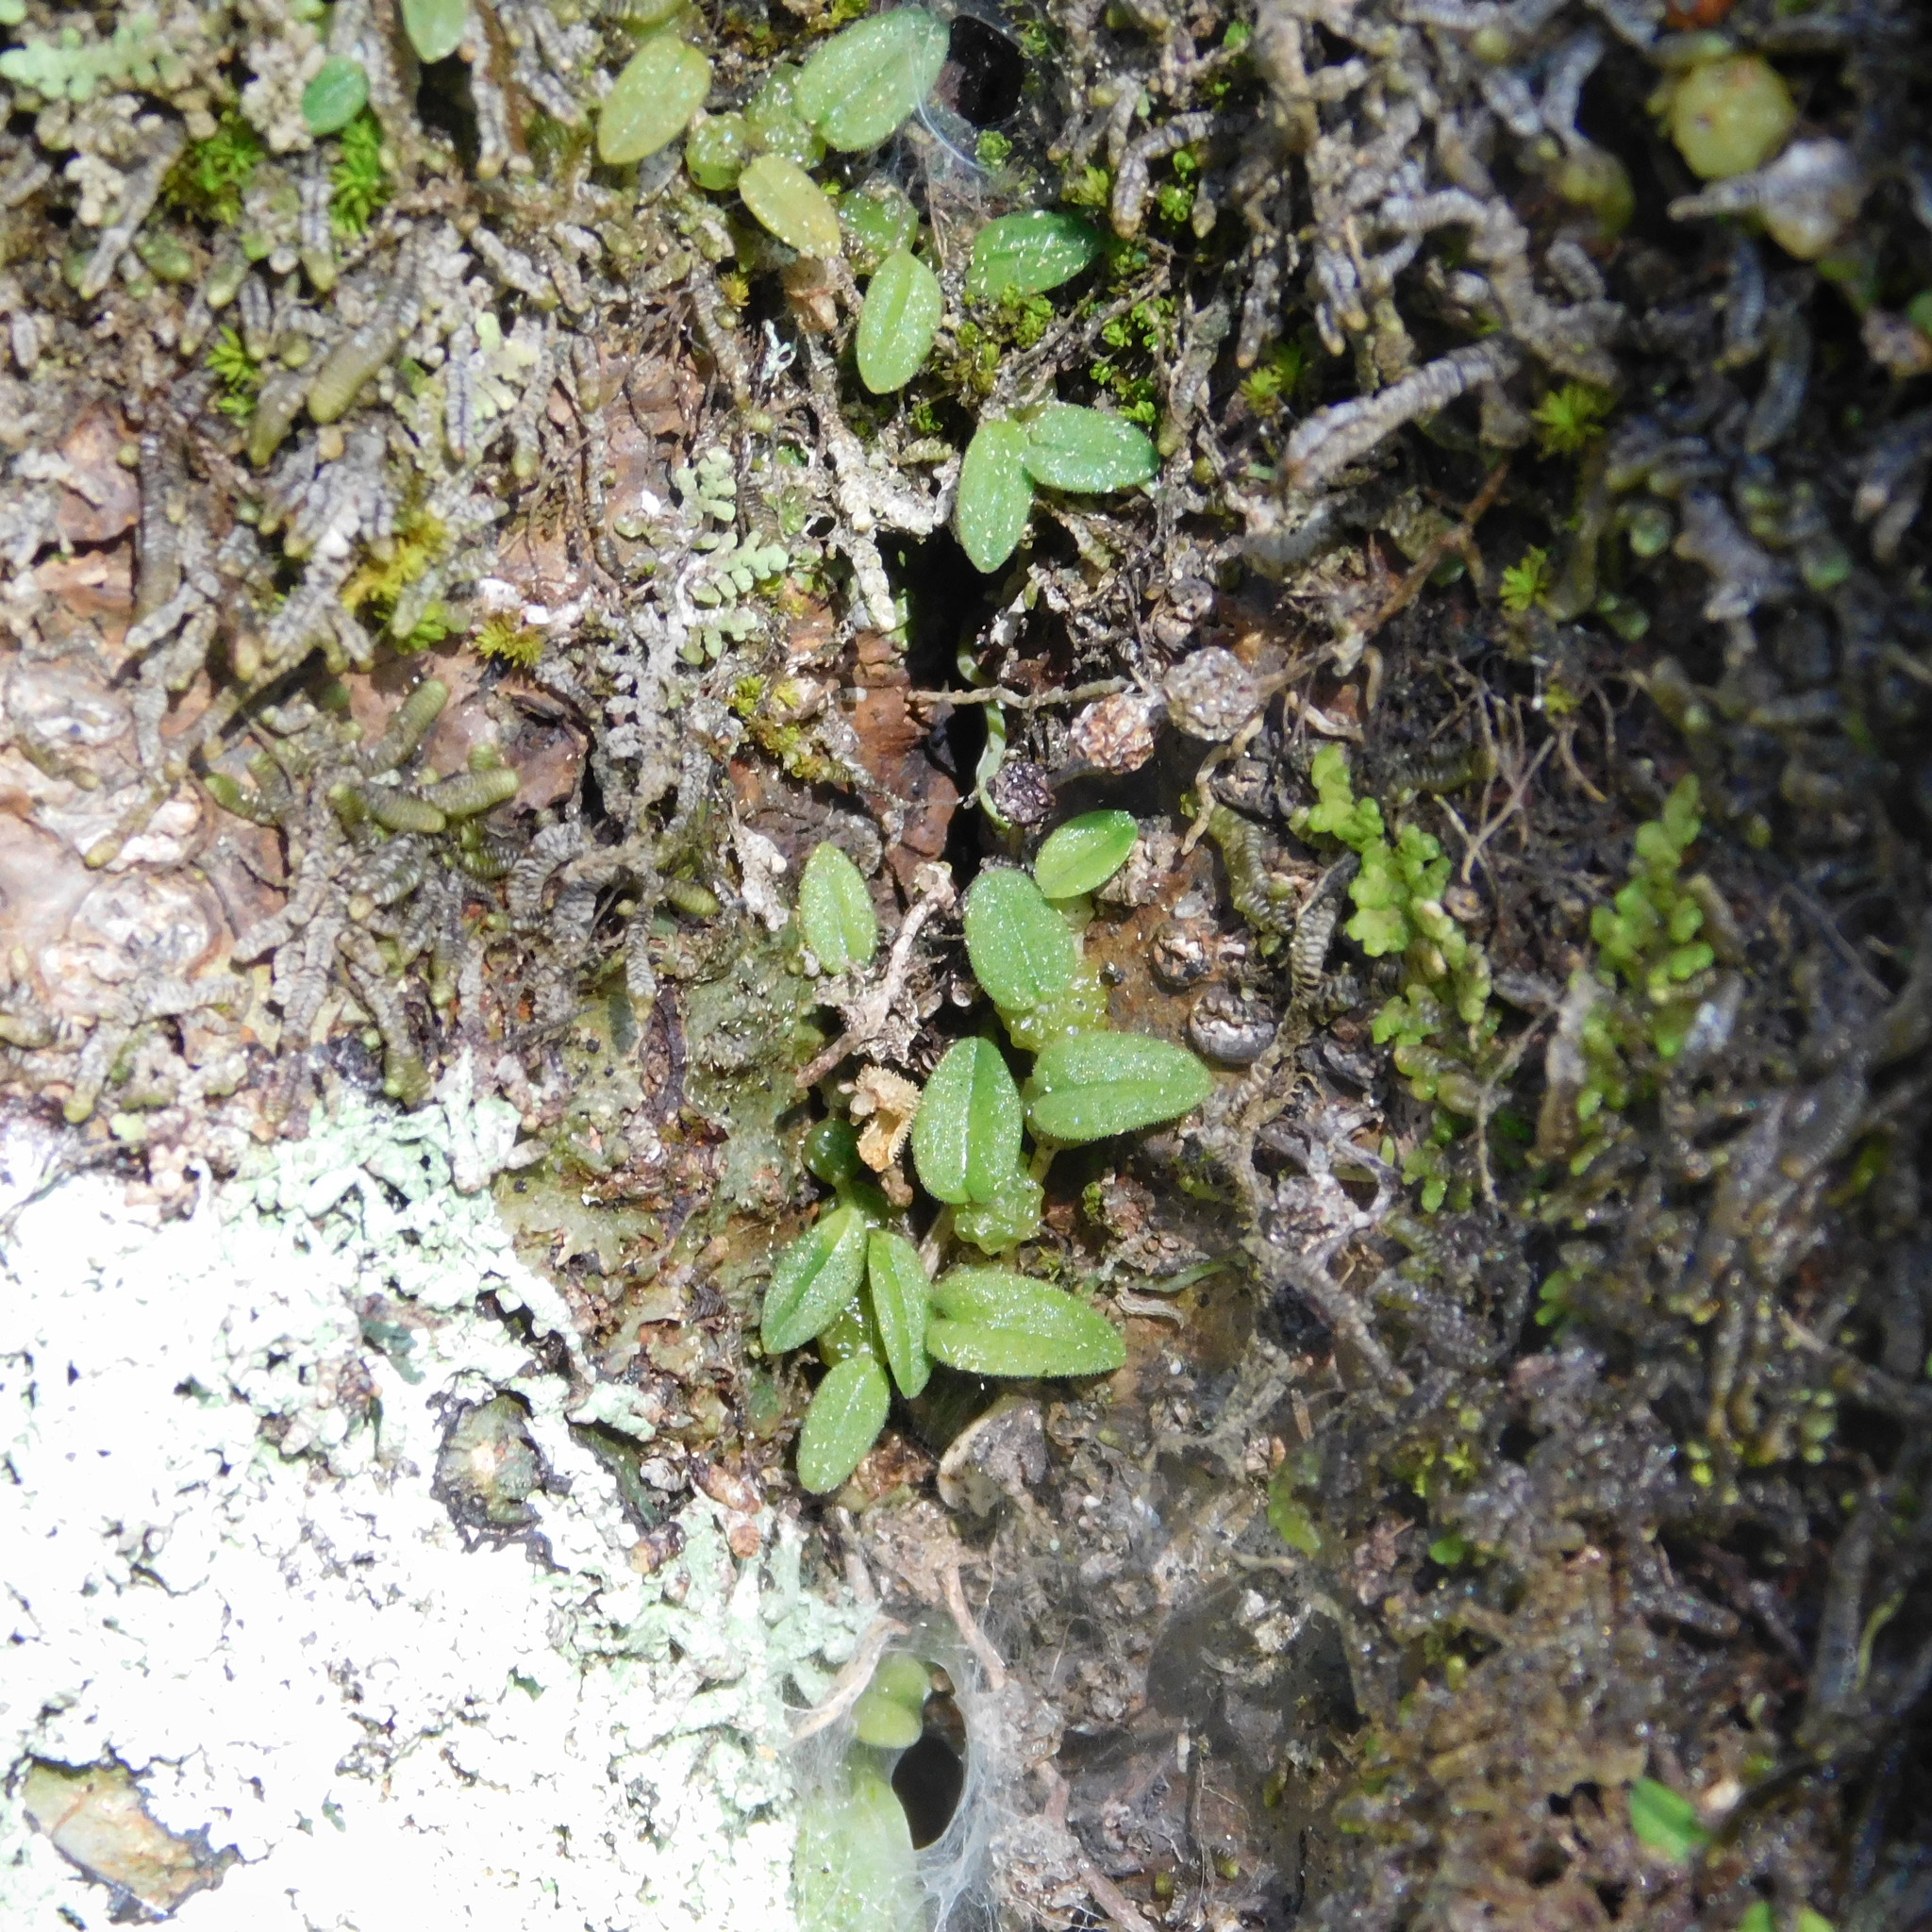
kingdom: Plantae
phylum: Tracheophyta
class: Liliopsida
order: Asparagales
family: Orchidaceae
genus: Bulbophyllum
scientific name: Bulbophyllum pygmaeum
